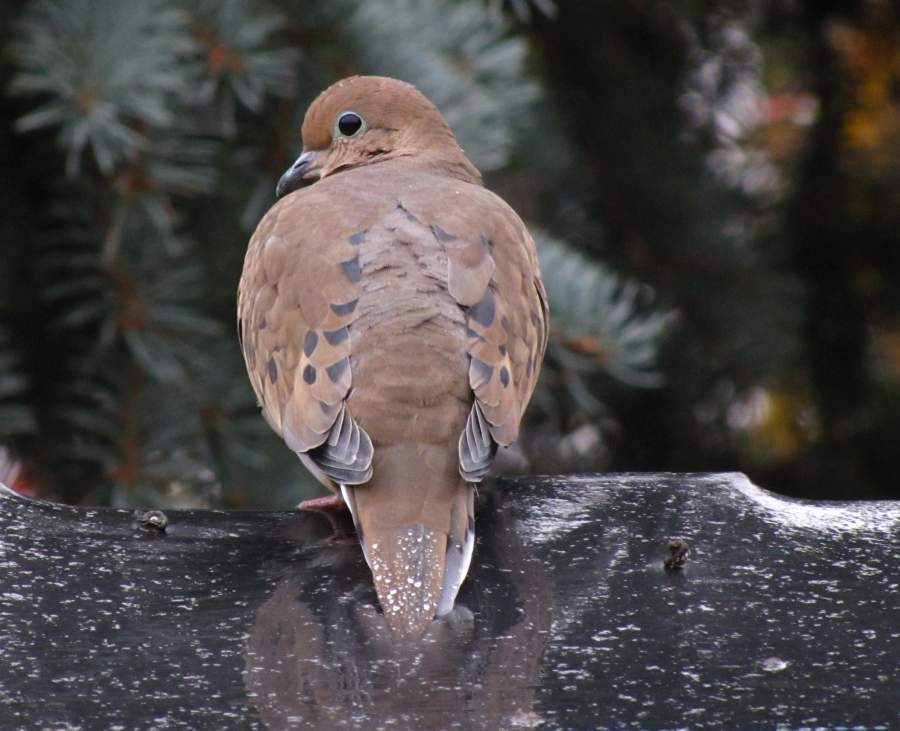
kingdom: Animalia
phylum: Chordata
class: Aves
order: Columbiformes
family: Columbidae
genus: Zenaida
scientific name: Zenaida macroura
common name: Mourning dove
